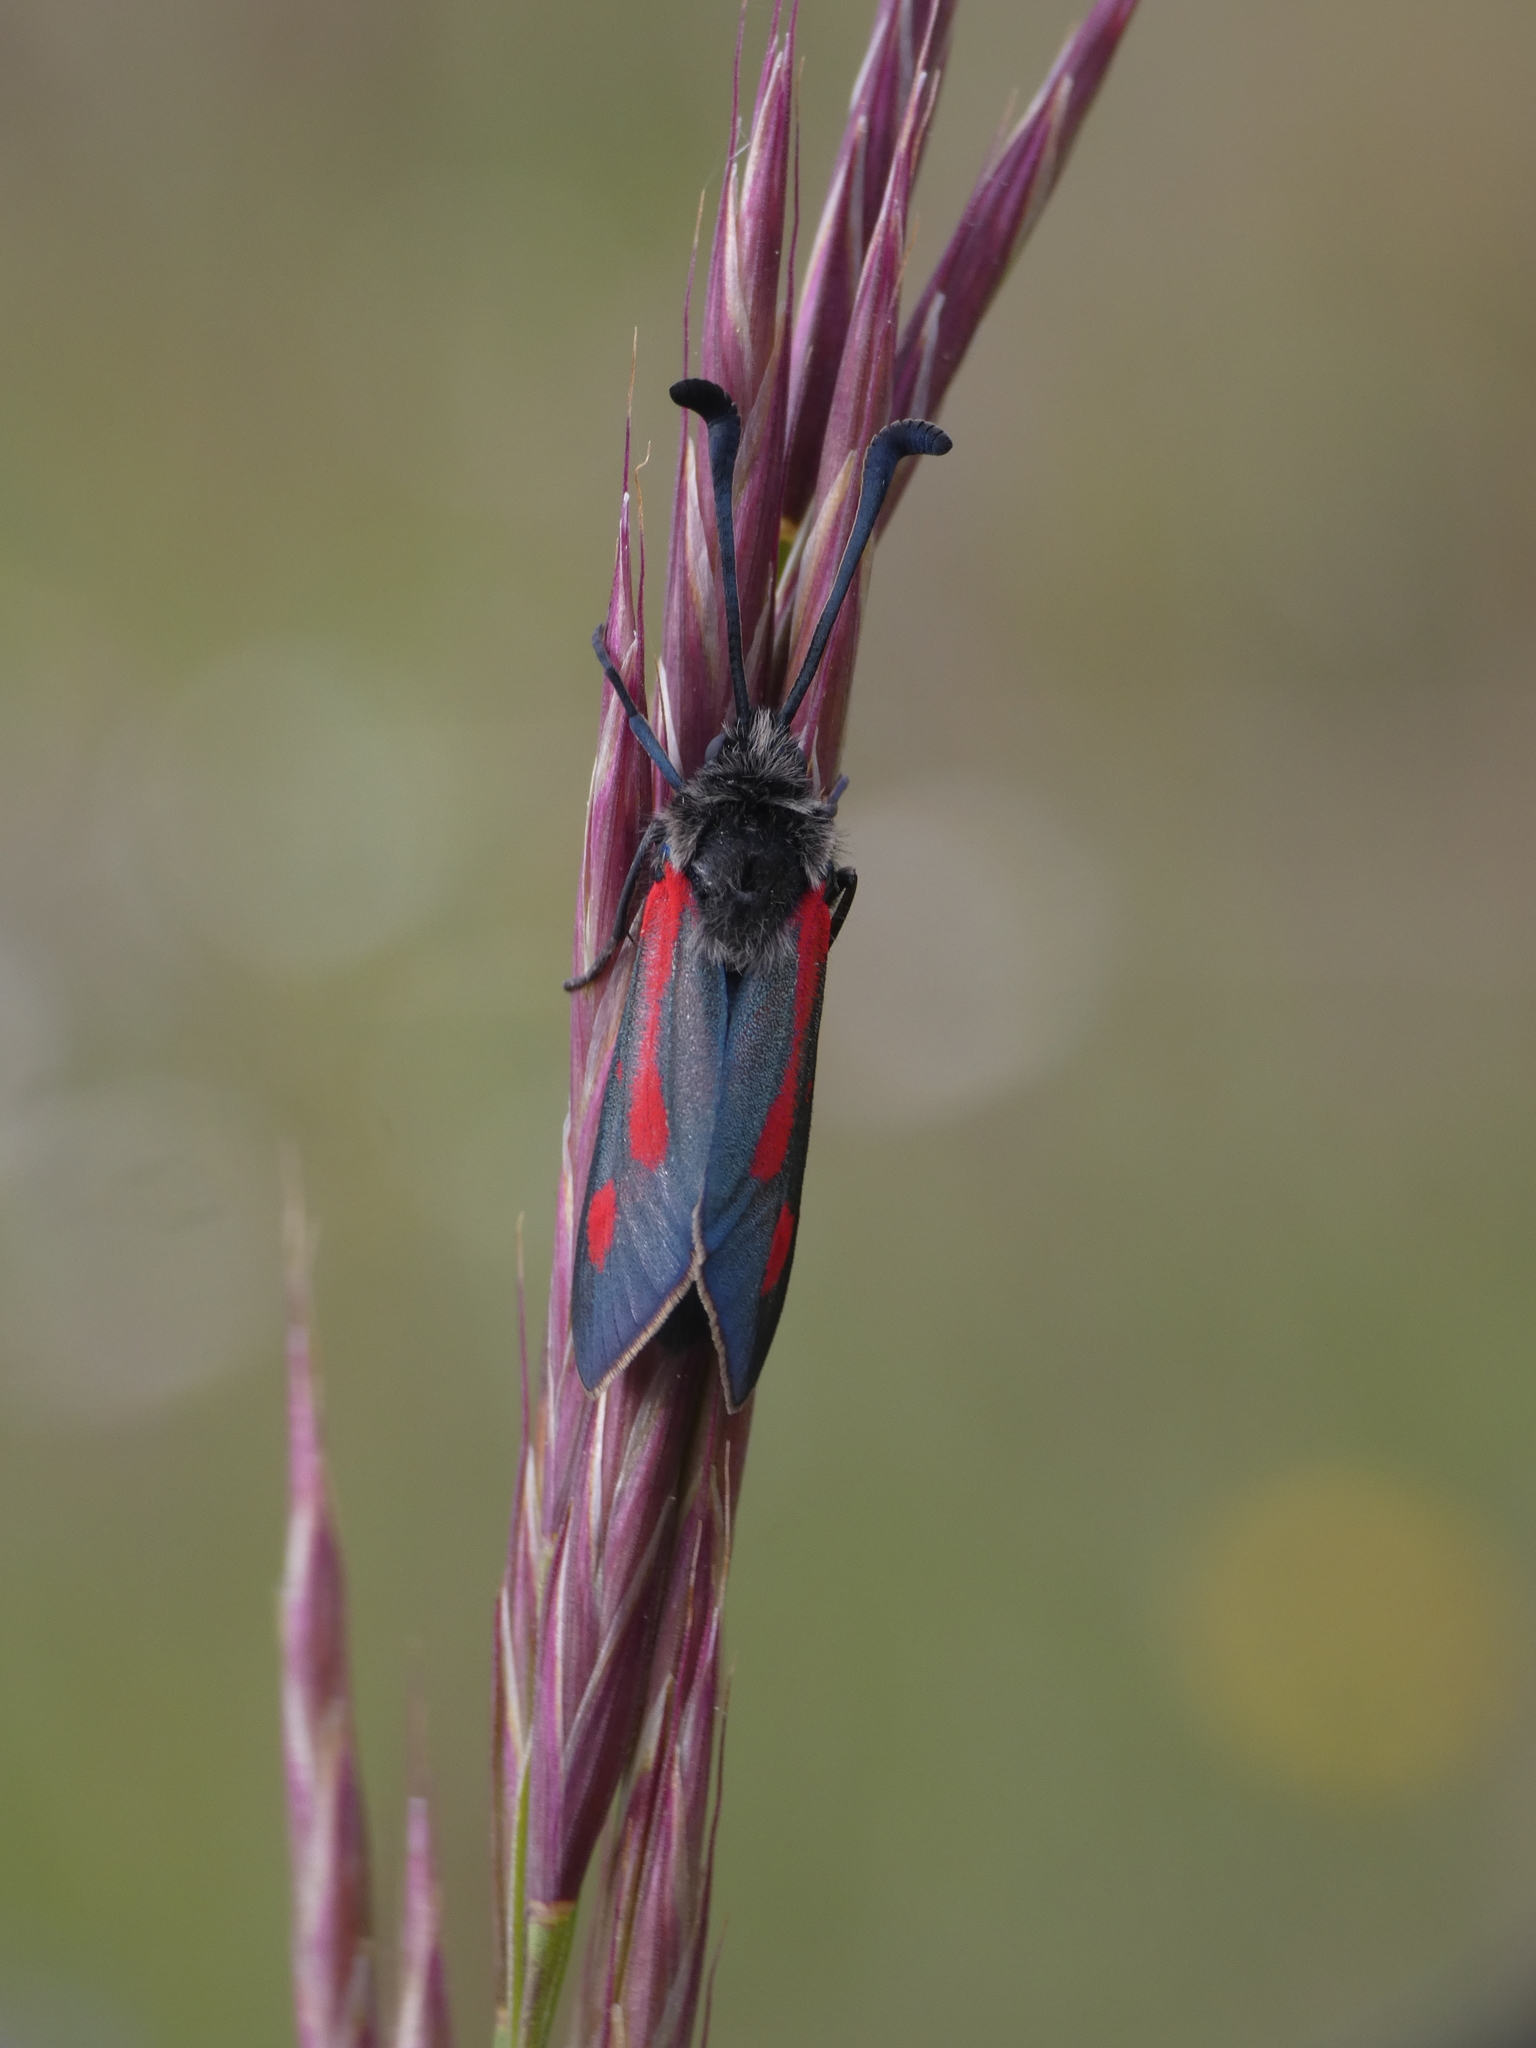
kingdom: Animalia
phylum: Arthropoda
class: Insecta
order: Lepidoptera
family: Zygaenidae
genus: Zygaena
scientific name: Zygaena sarpedon
